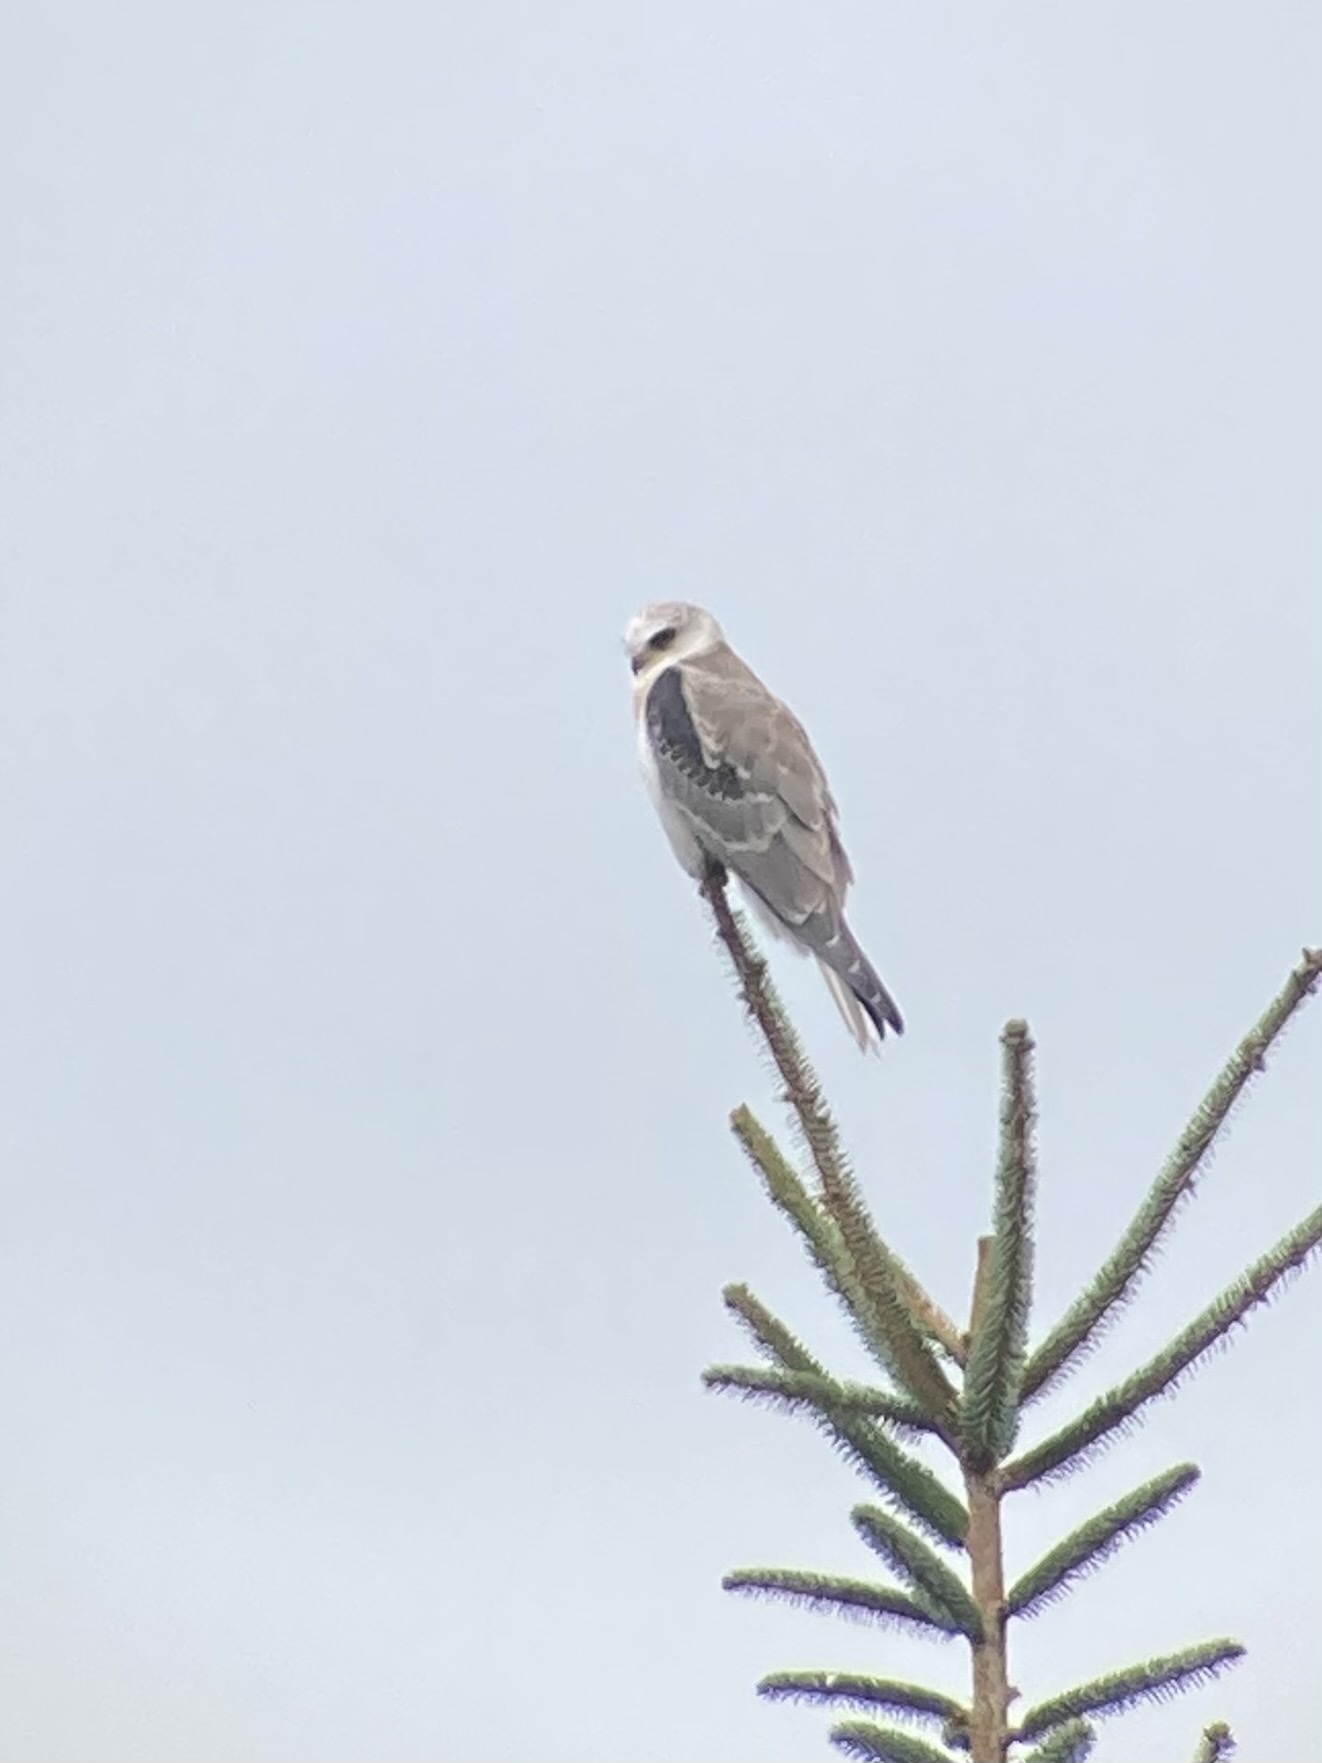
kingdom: Animalia
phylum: Chordata
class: Aves
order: Accipitriformes
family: Accipitridae
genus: Elanus
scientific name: Elanus leucurus
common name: White-tailed kite
